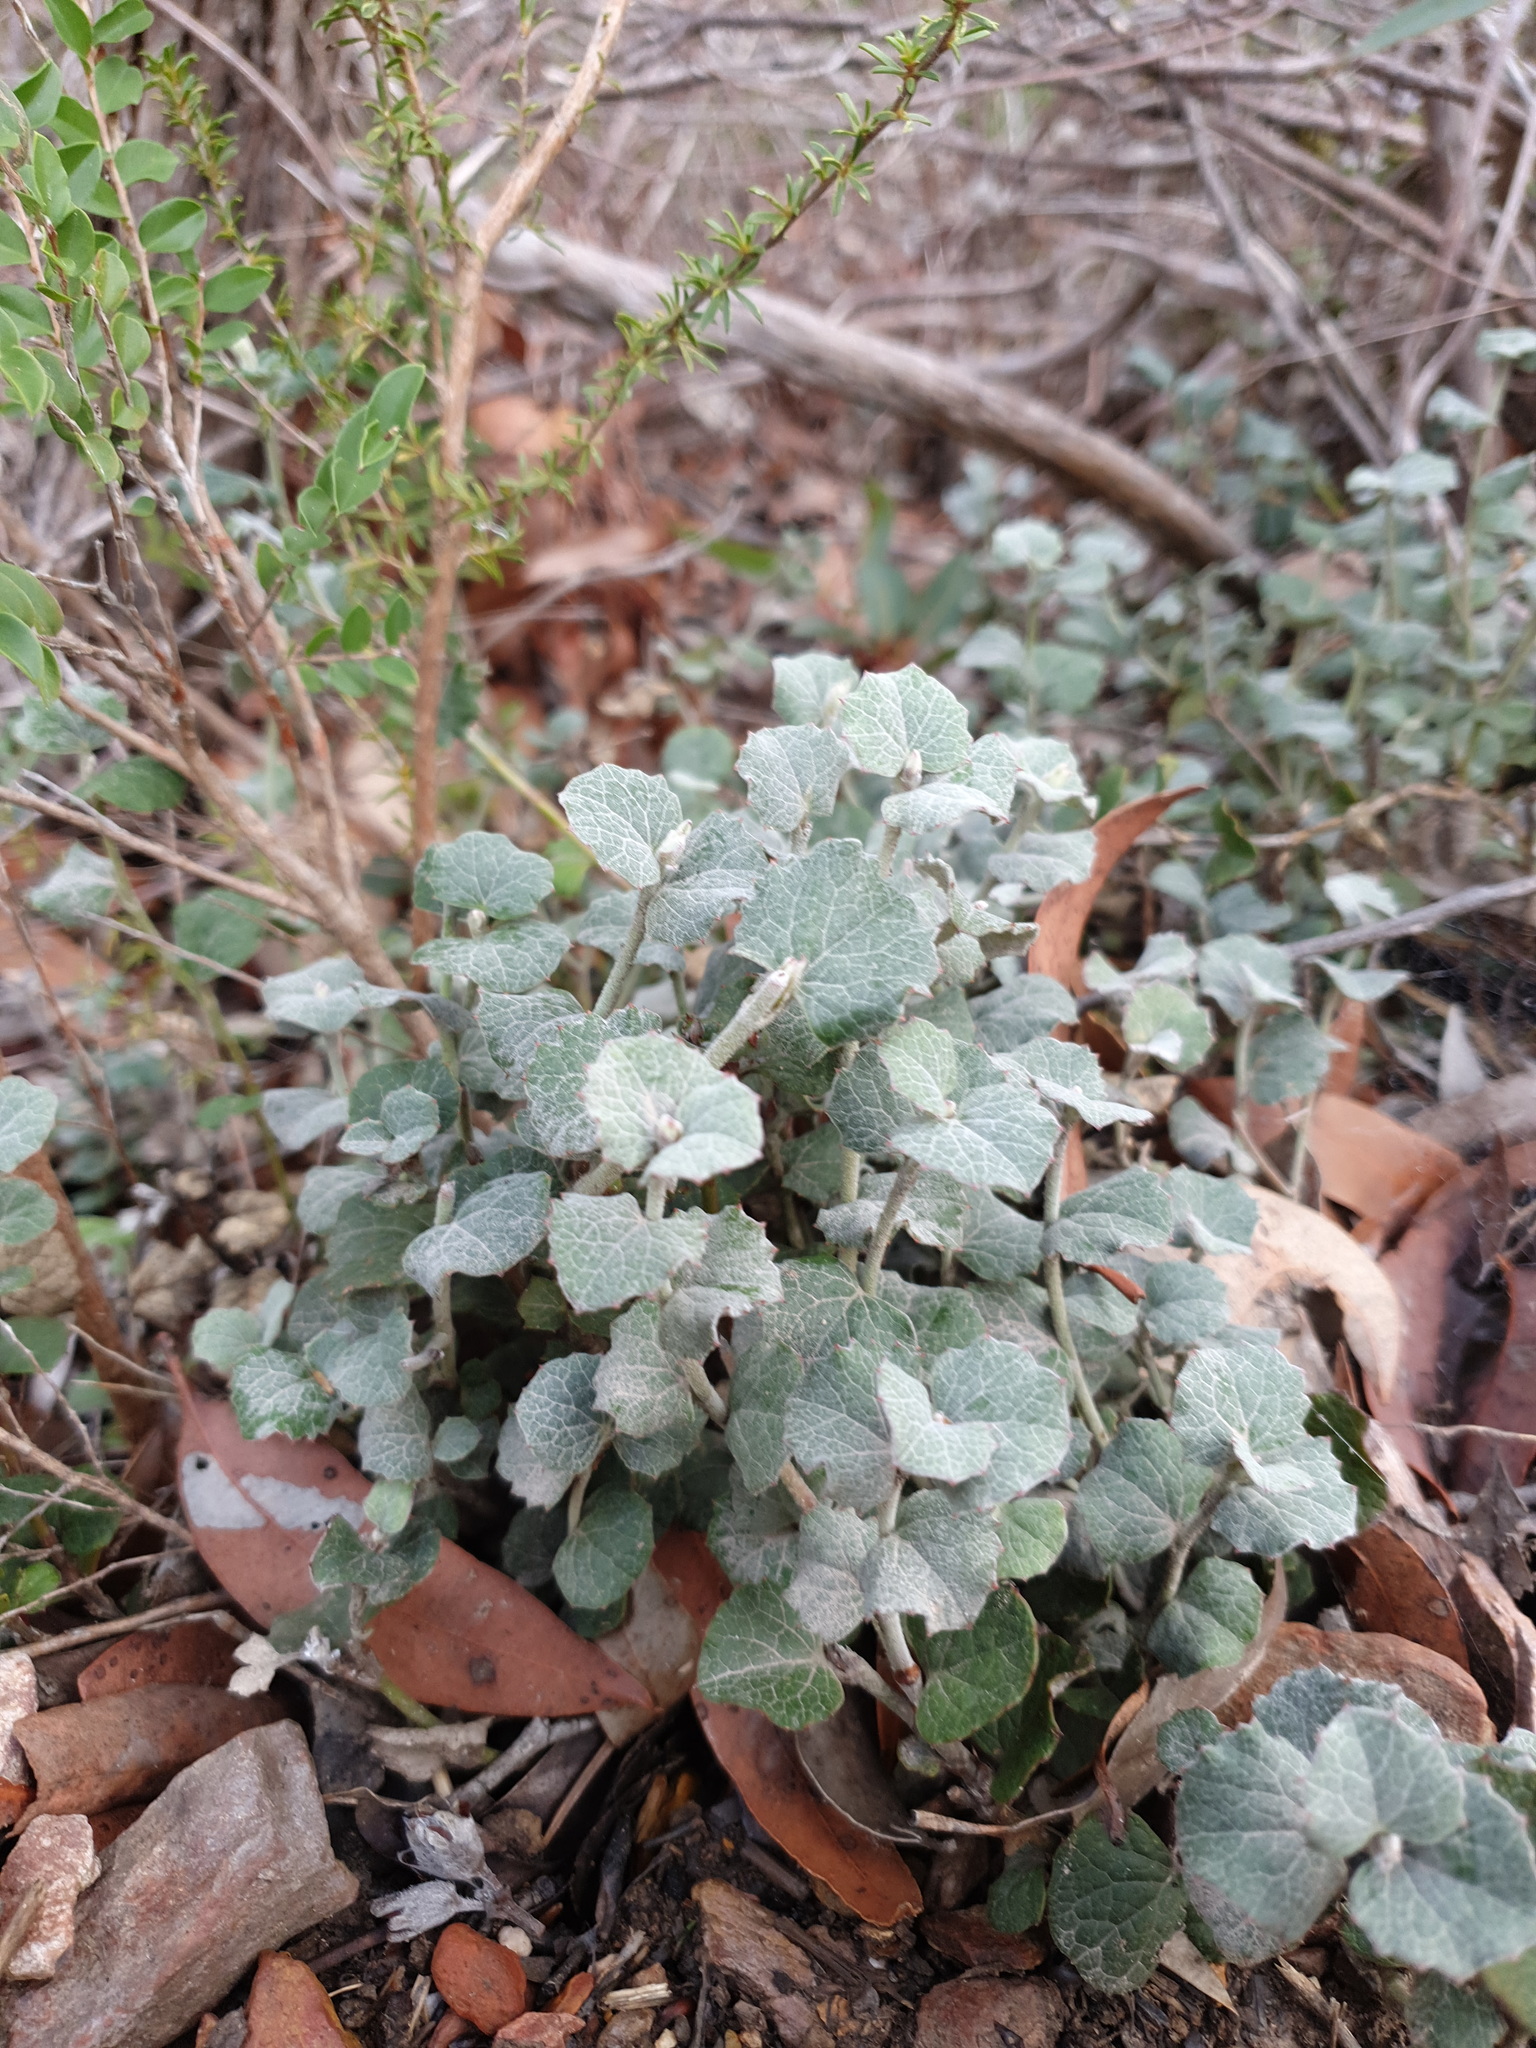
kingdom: Plantae
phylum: Tracheophyta
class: Magnoliopsida
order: Apiales
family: Apiaceae
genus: Xanthosia
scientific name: Xanthosia rotundifolia
